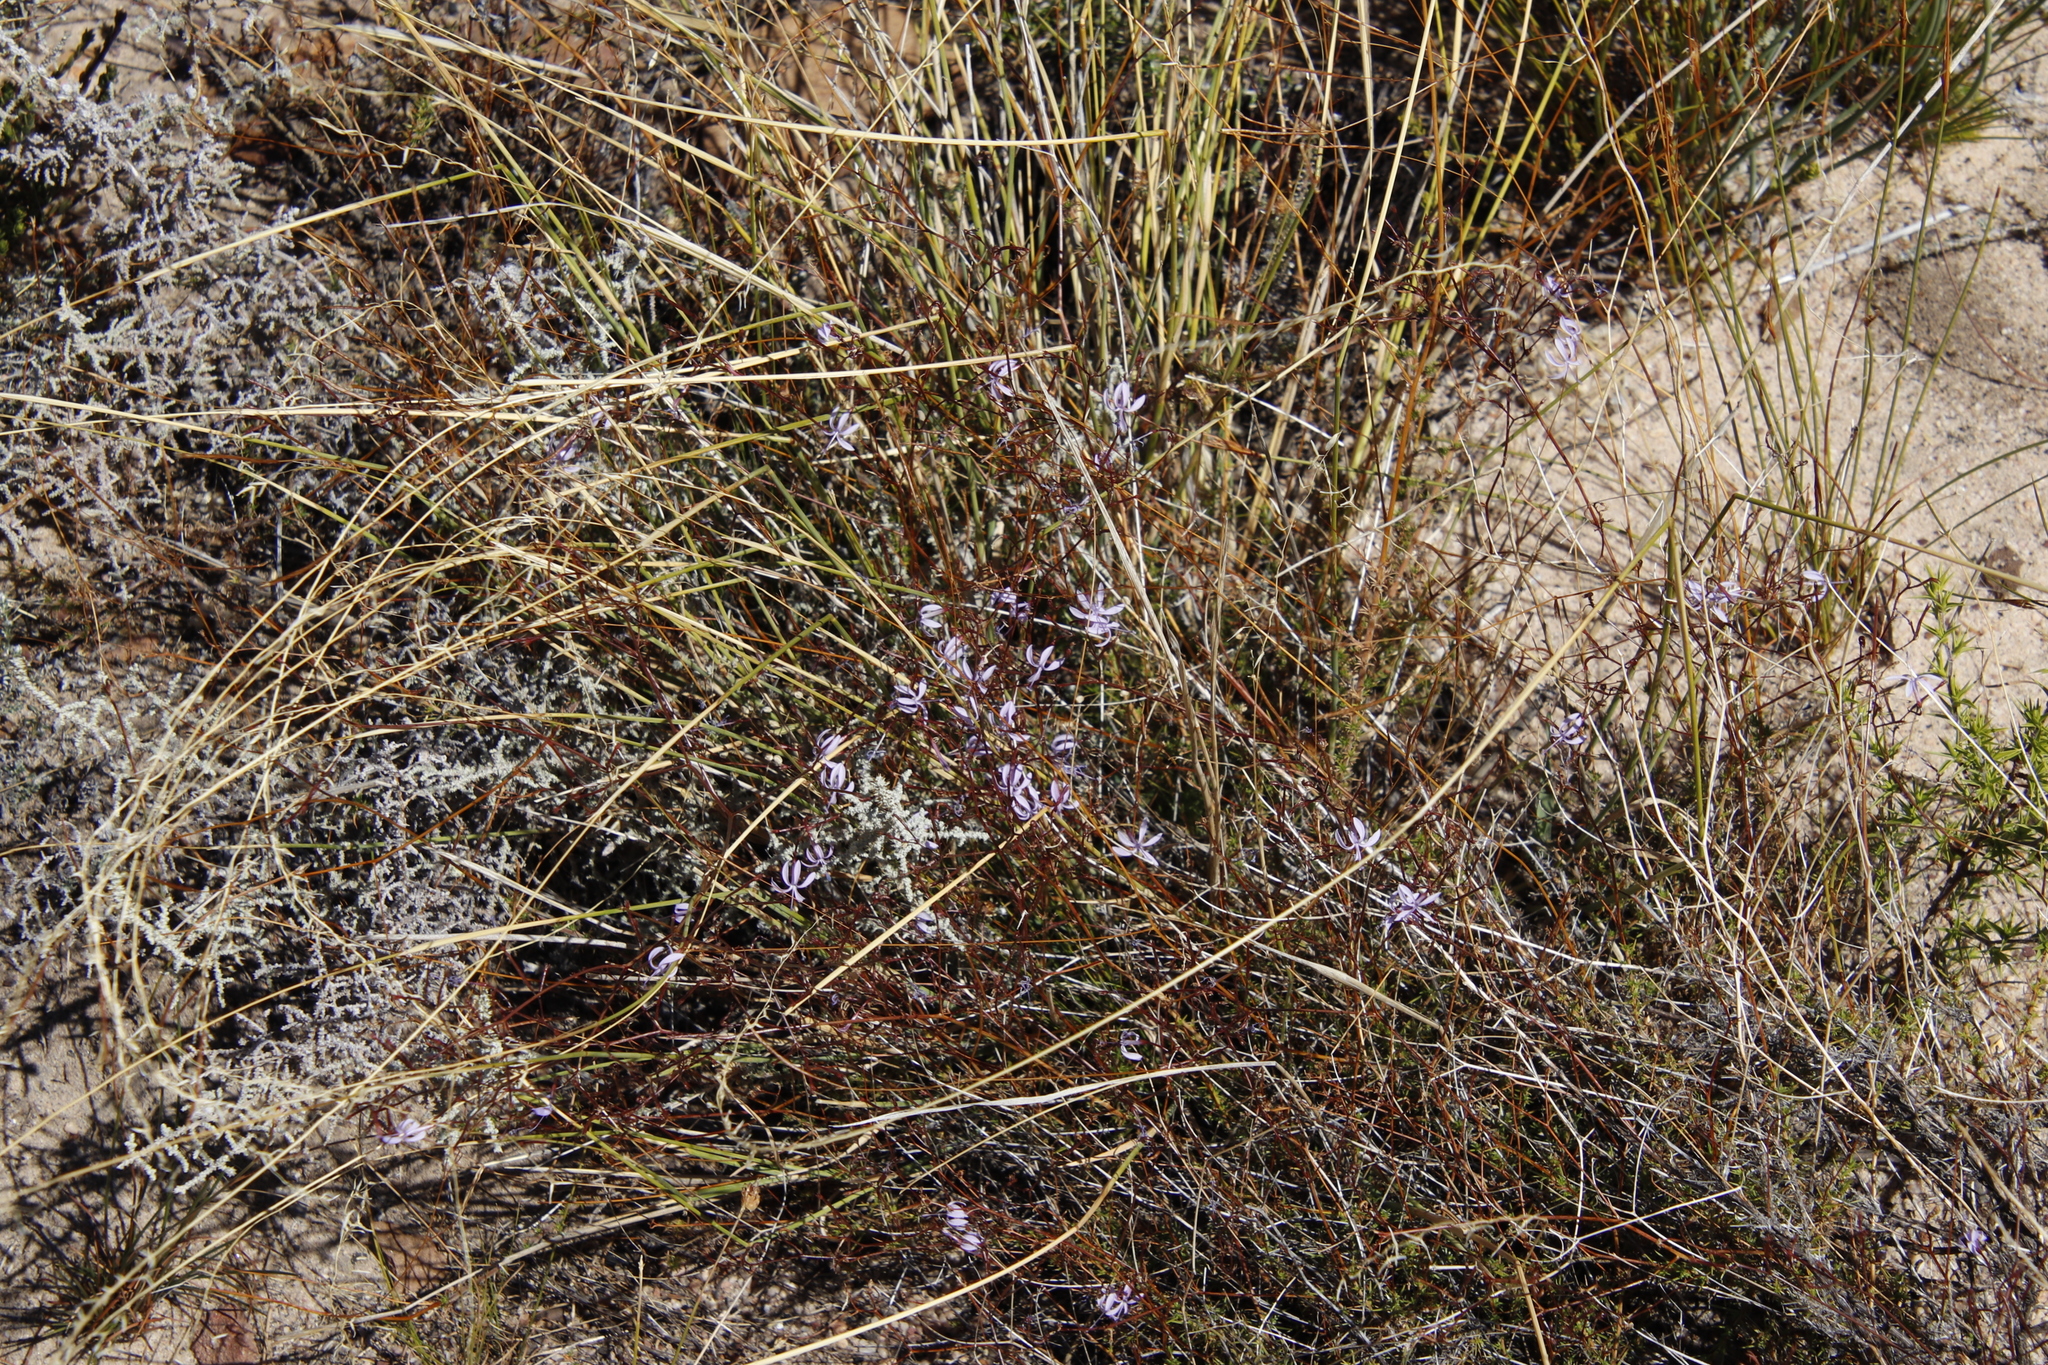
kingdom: Plantae
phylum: Tracheophyta
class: Magnoliopsida
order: Asterales
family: Campanulaceae
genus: Prismatocarpus
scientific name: Prismatocarpus diffusus
